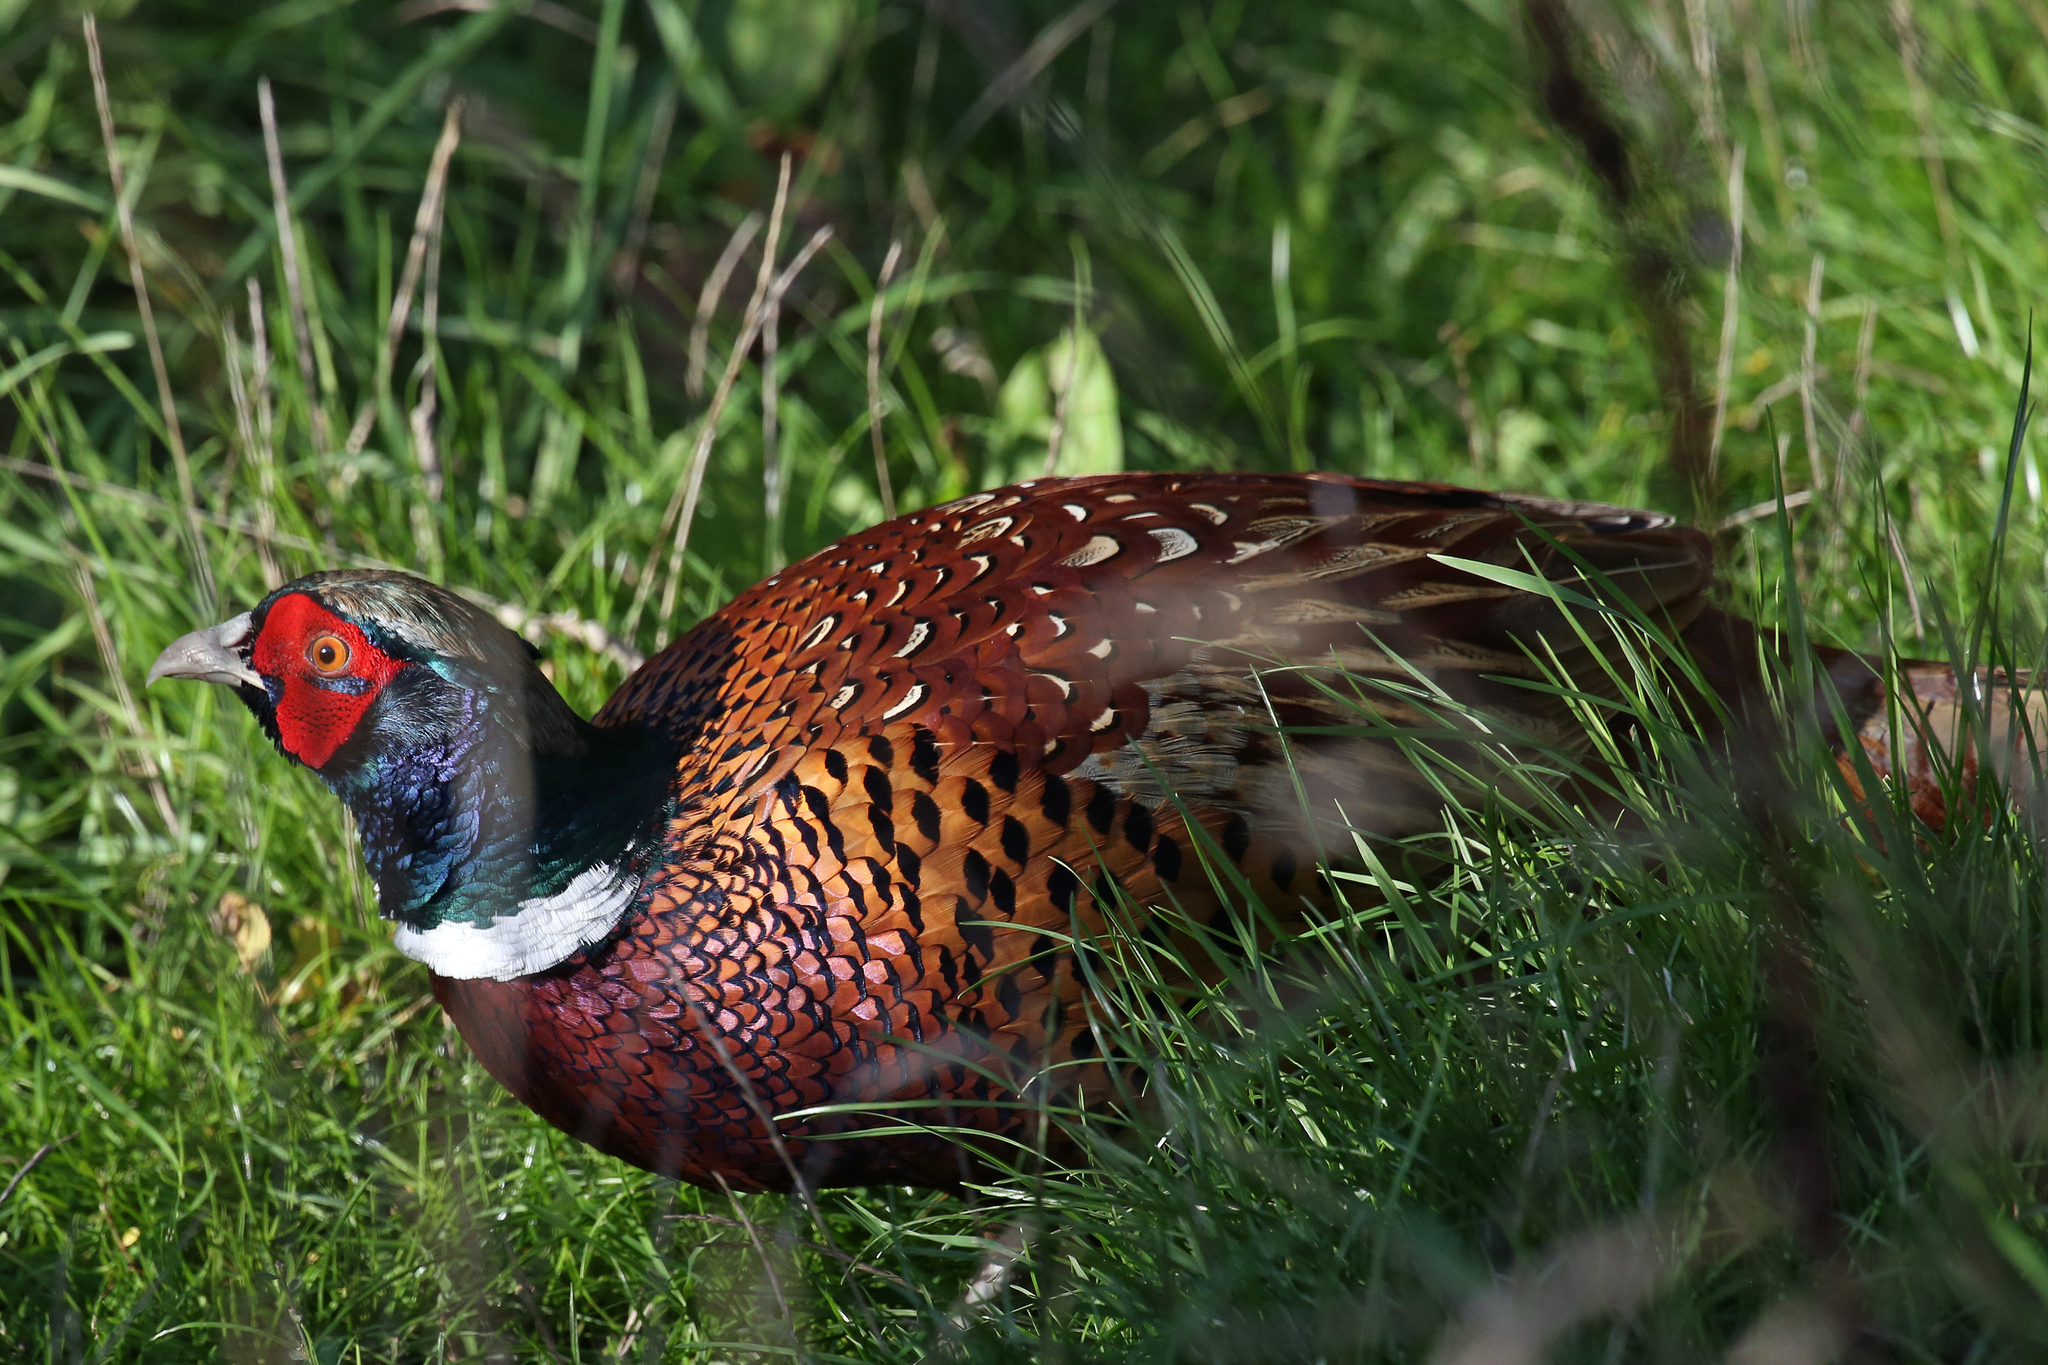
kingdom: Animalia
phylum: Chordata
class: Aves
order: Galliformes
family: Phasianidae
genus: Phasianus
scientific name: Phasianus colchicus
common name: Common pheasant
